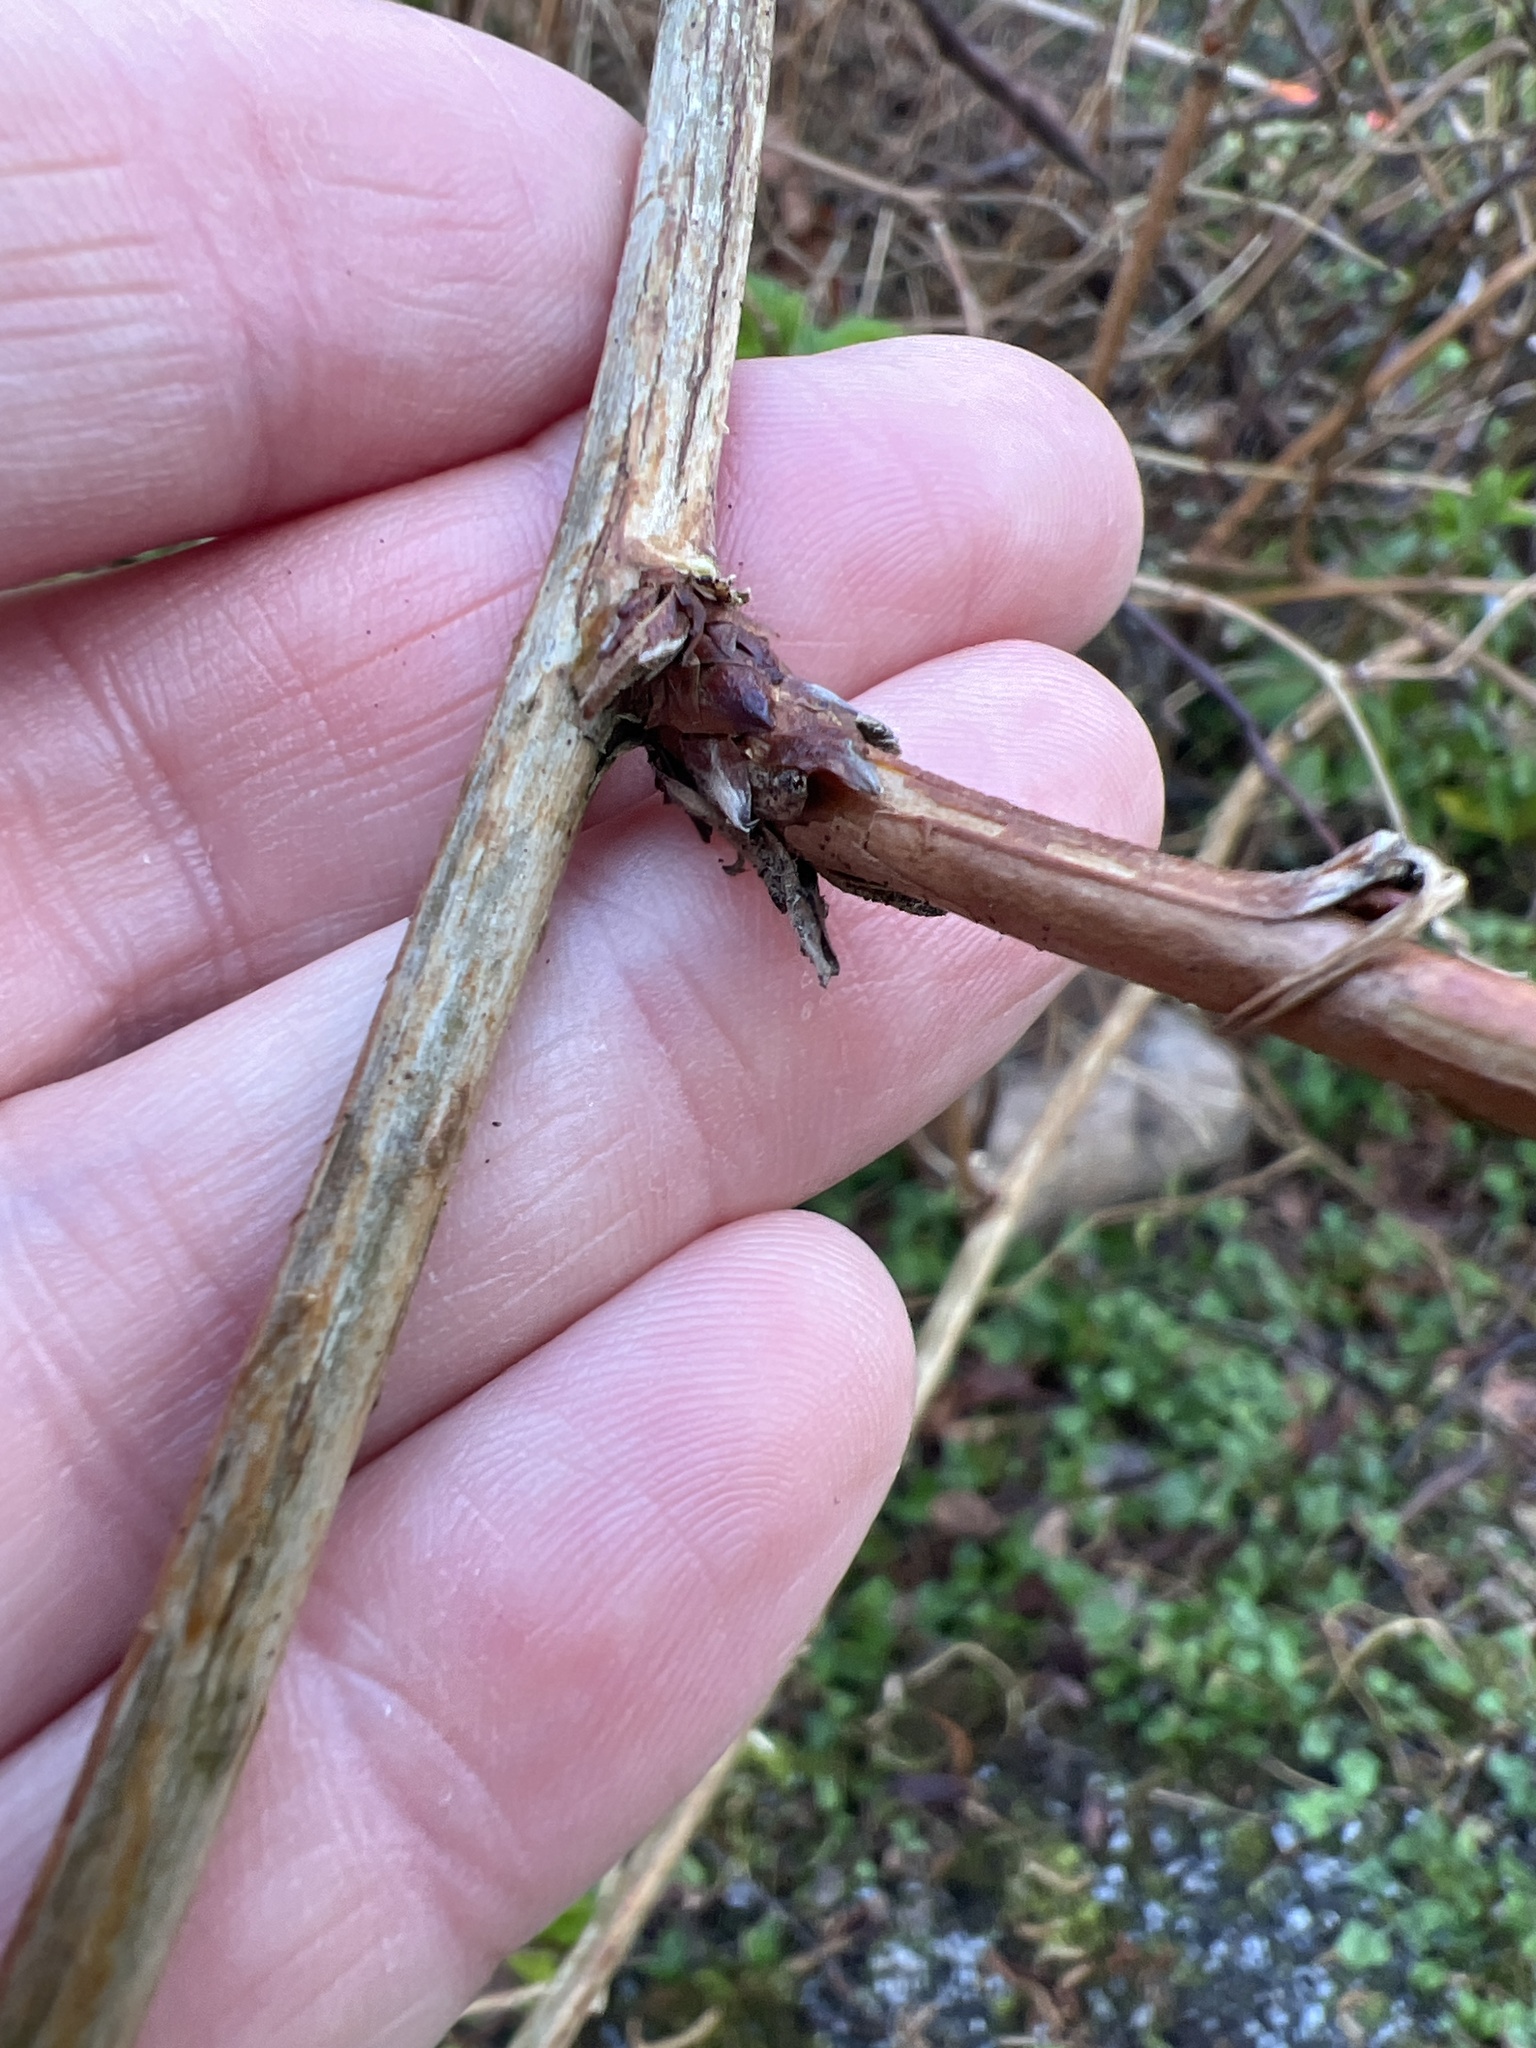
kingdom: Plantae
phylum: Tracheophyta
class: Magnoliopsida
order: Rosales
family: Rosaceae
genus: Rubus
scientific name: Rubus spectabilis
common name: Salmonberry
